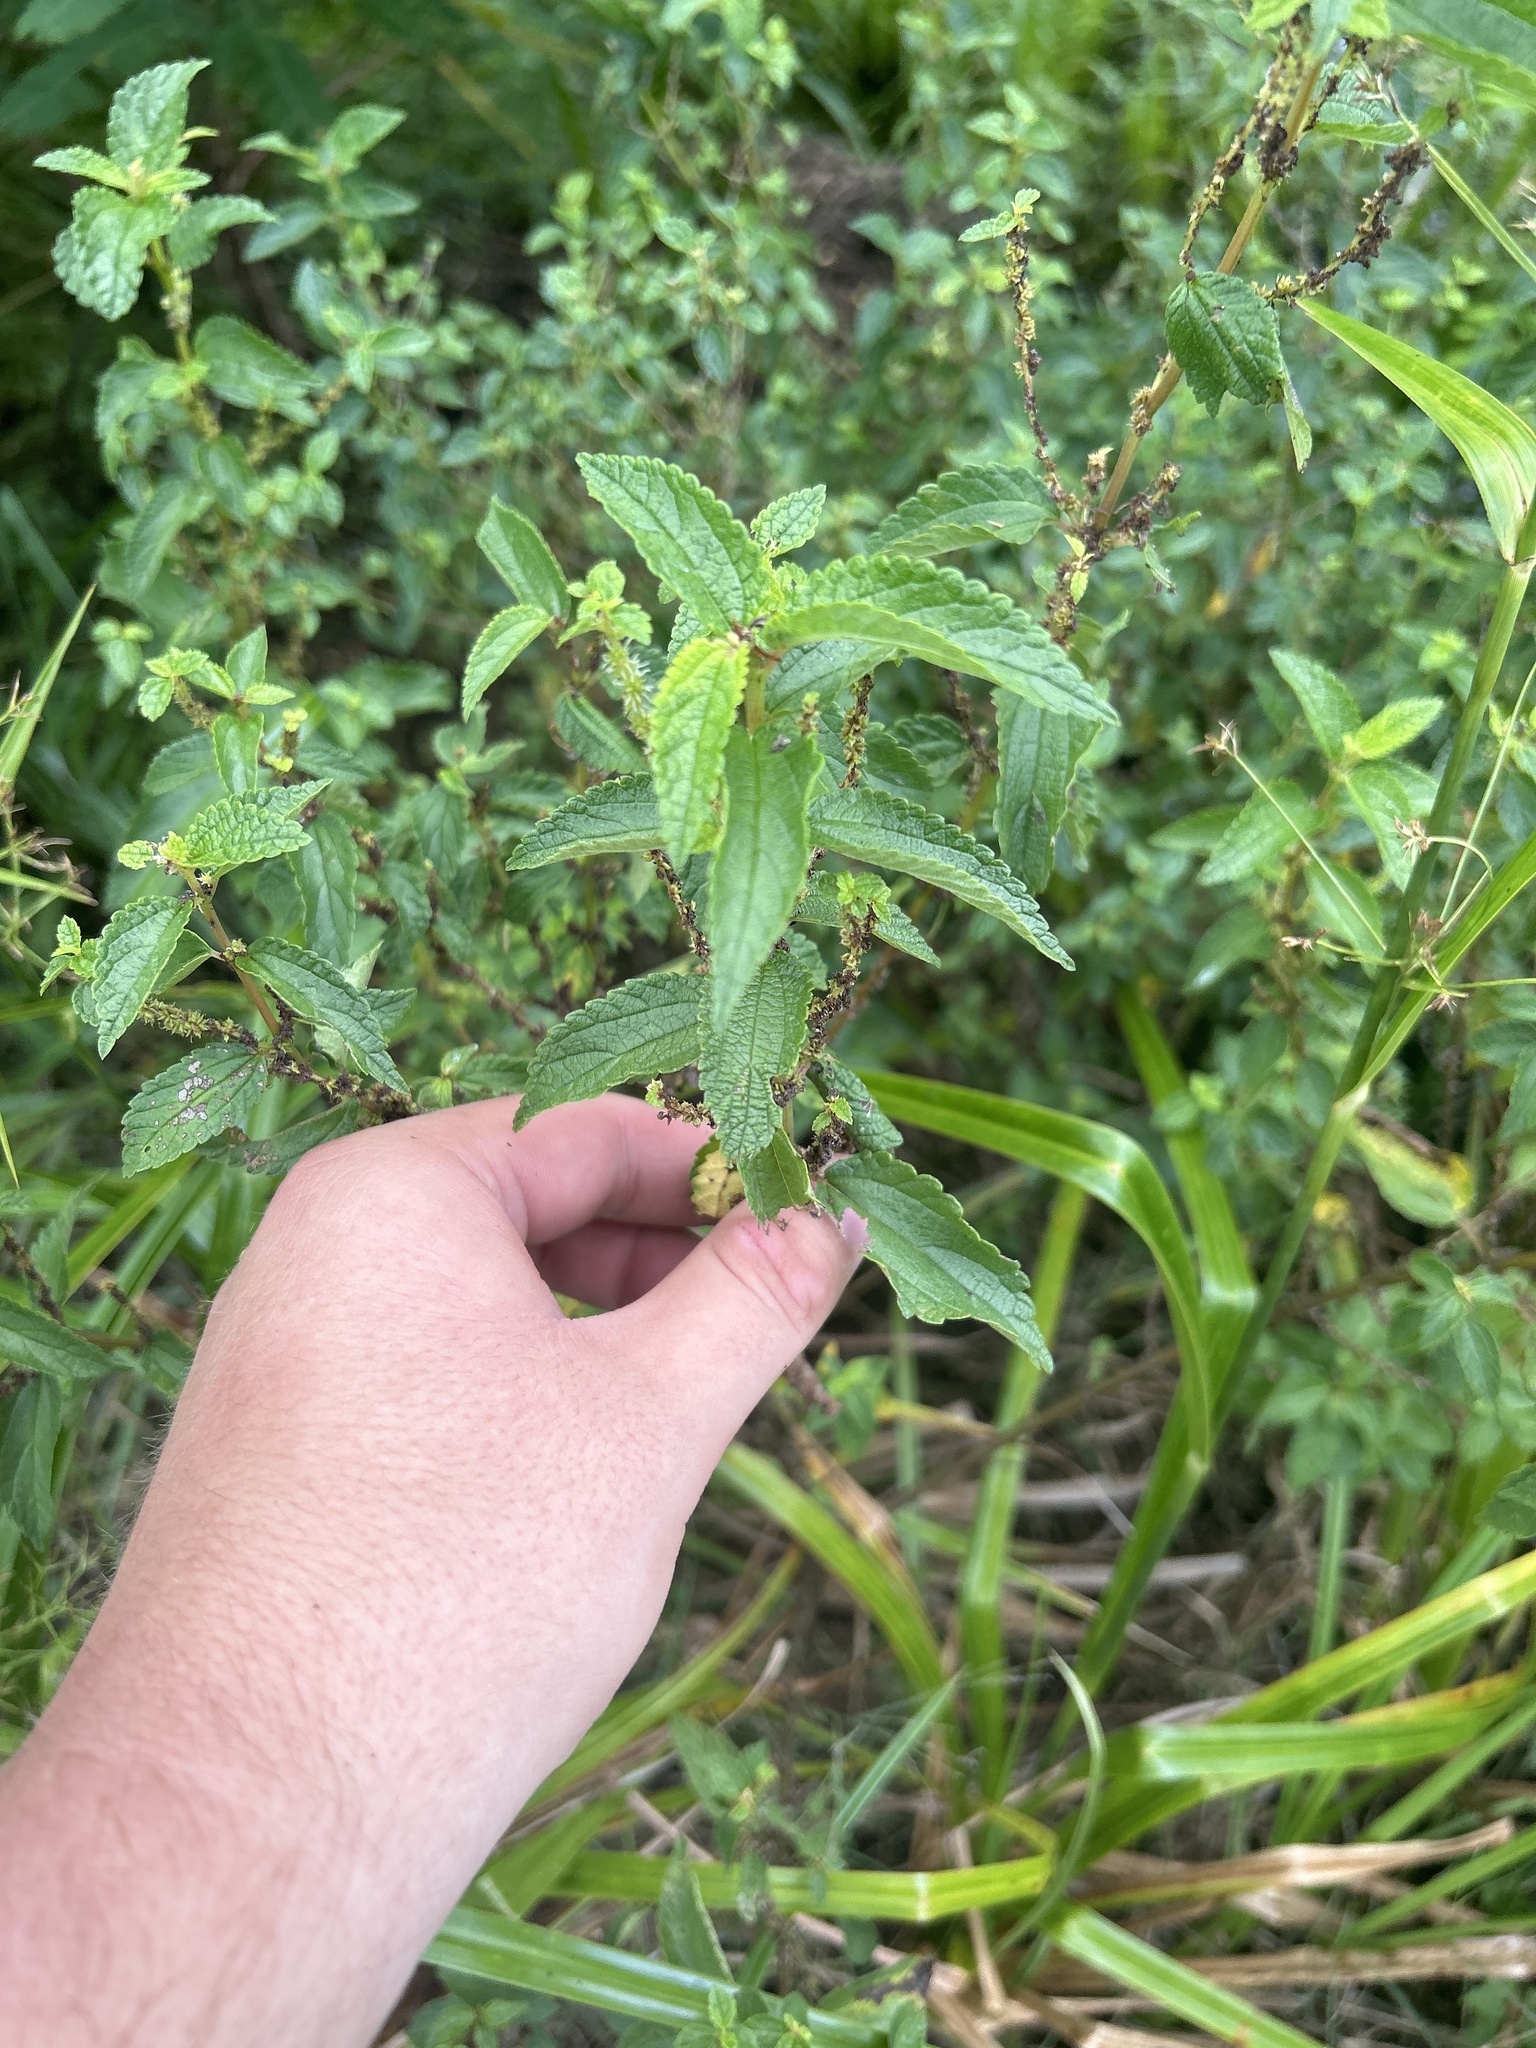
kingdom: Plantae
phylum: Tracheophyta
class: Magnoliopsida
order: Rosales
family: Urticaceae
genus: Boehmeria
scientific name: Boehmeria cylindrica
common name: Bog-hemp
